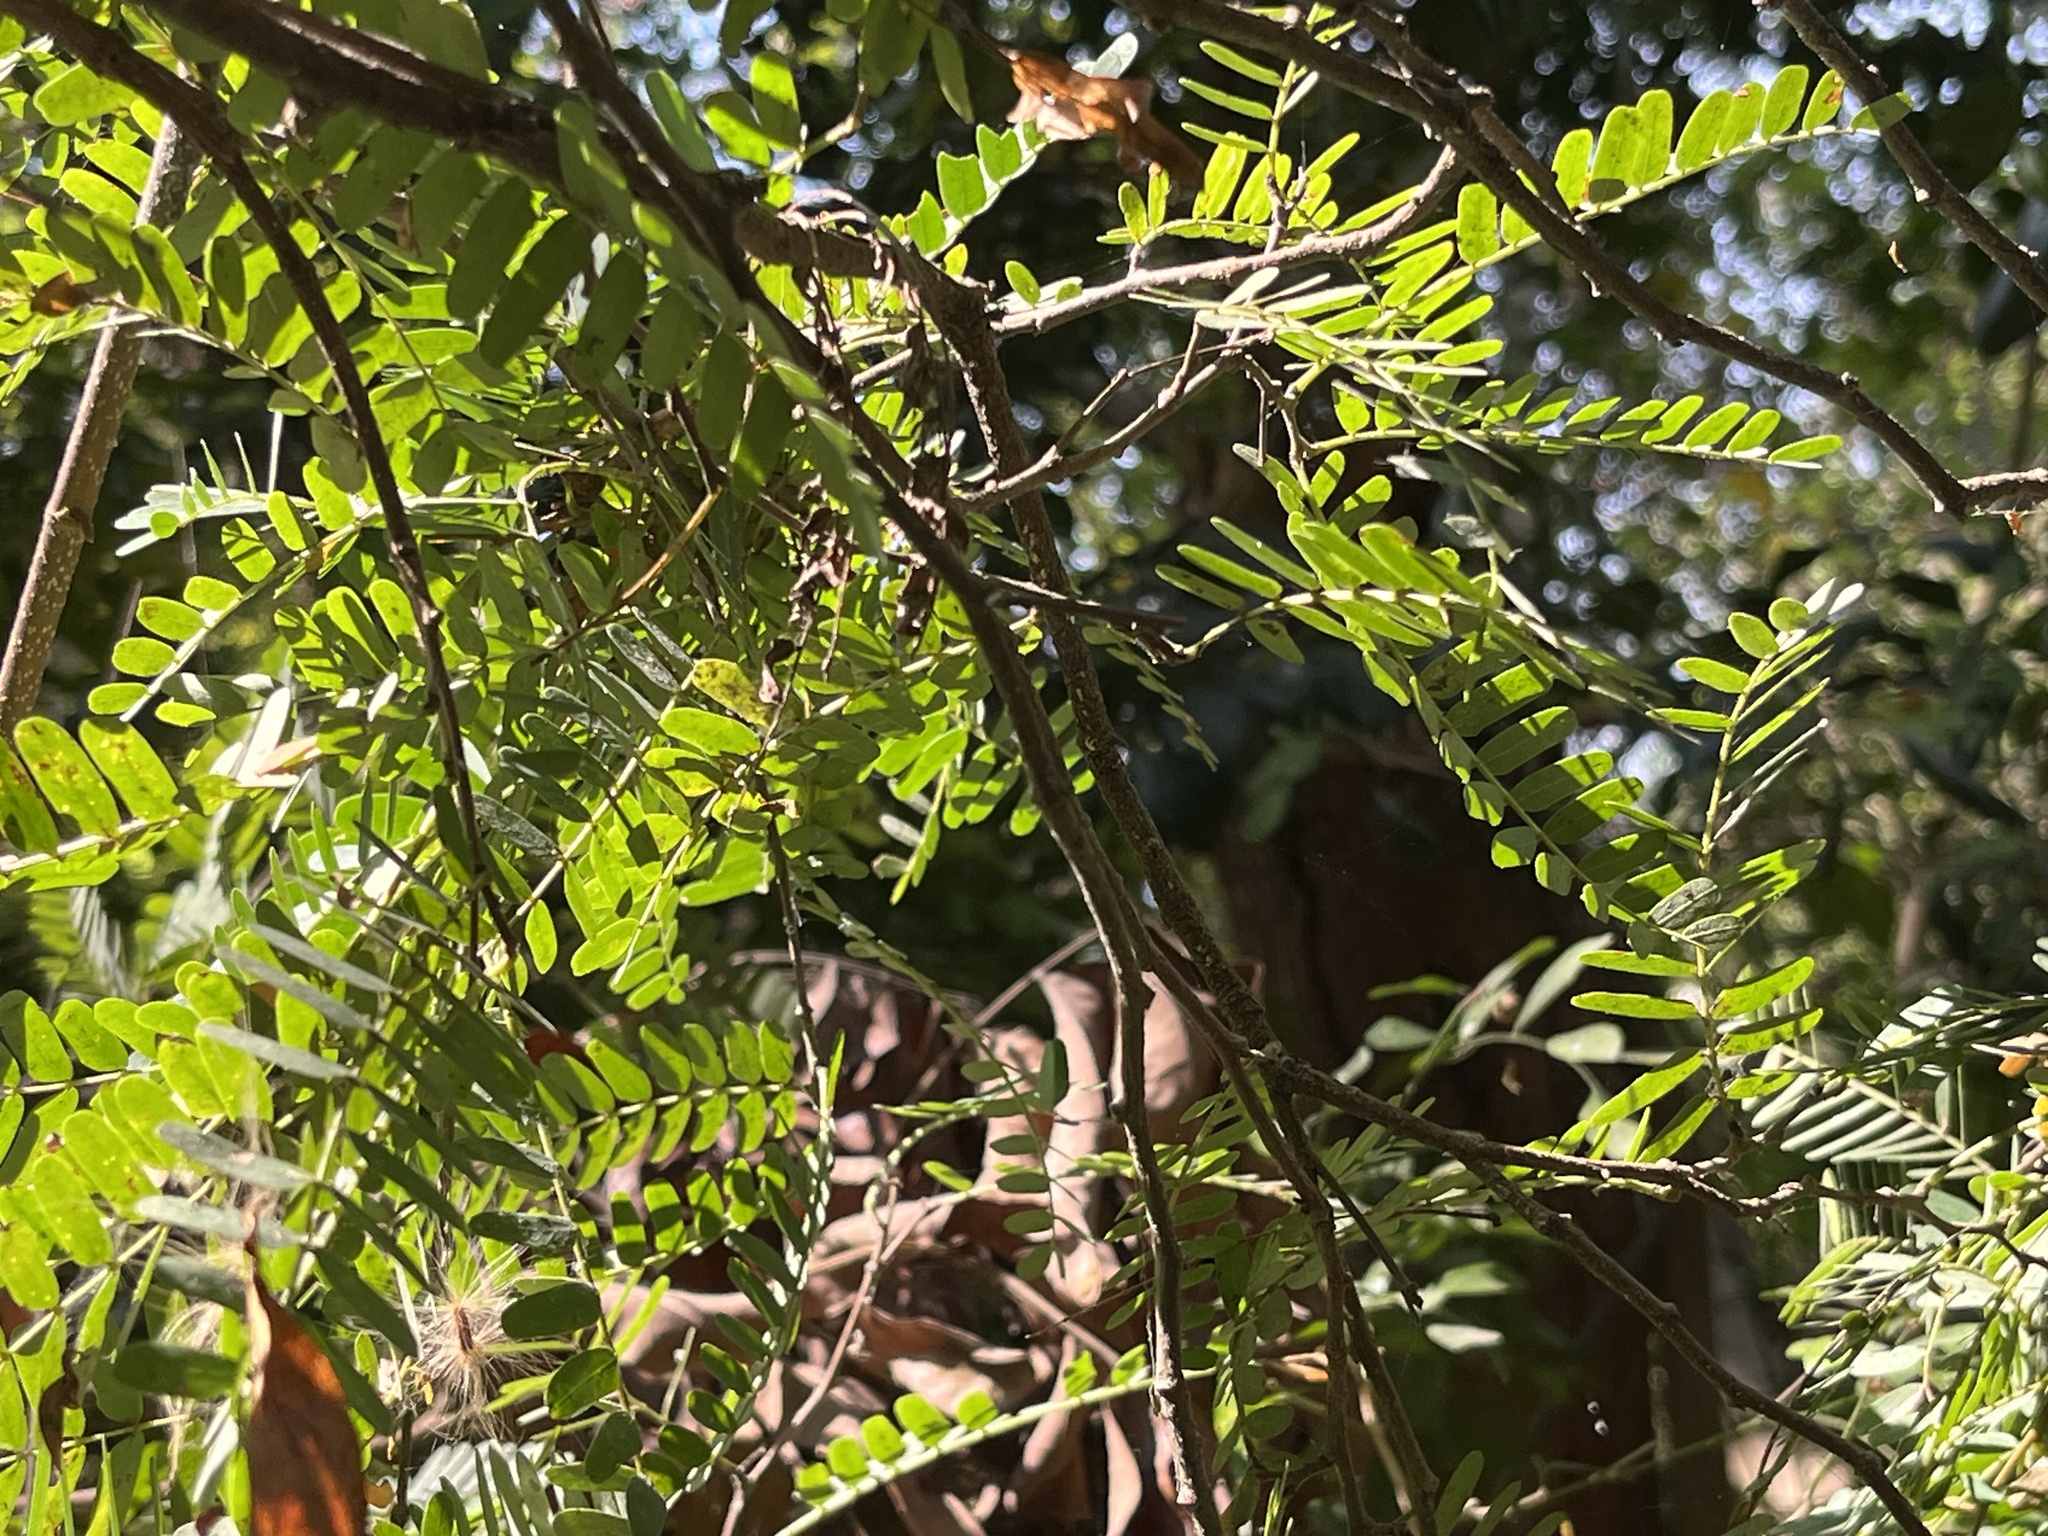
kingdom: Plantae
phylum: Tracheophyta
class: Magnoliopsida
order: Fabales
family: Fabaceae
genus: Abrus
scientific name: Abrus precatorius
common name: Rosarypea
